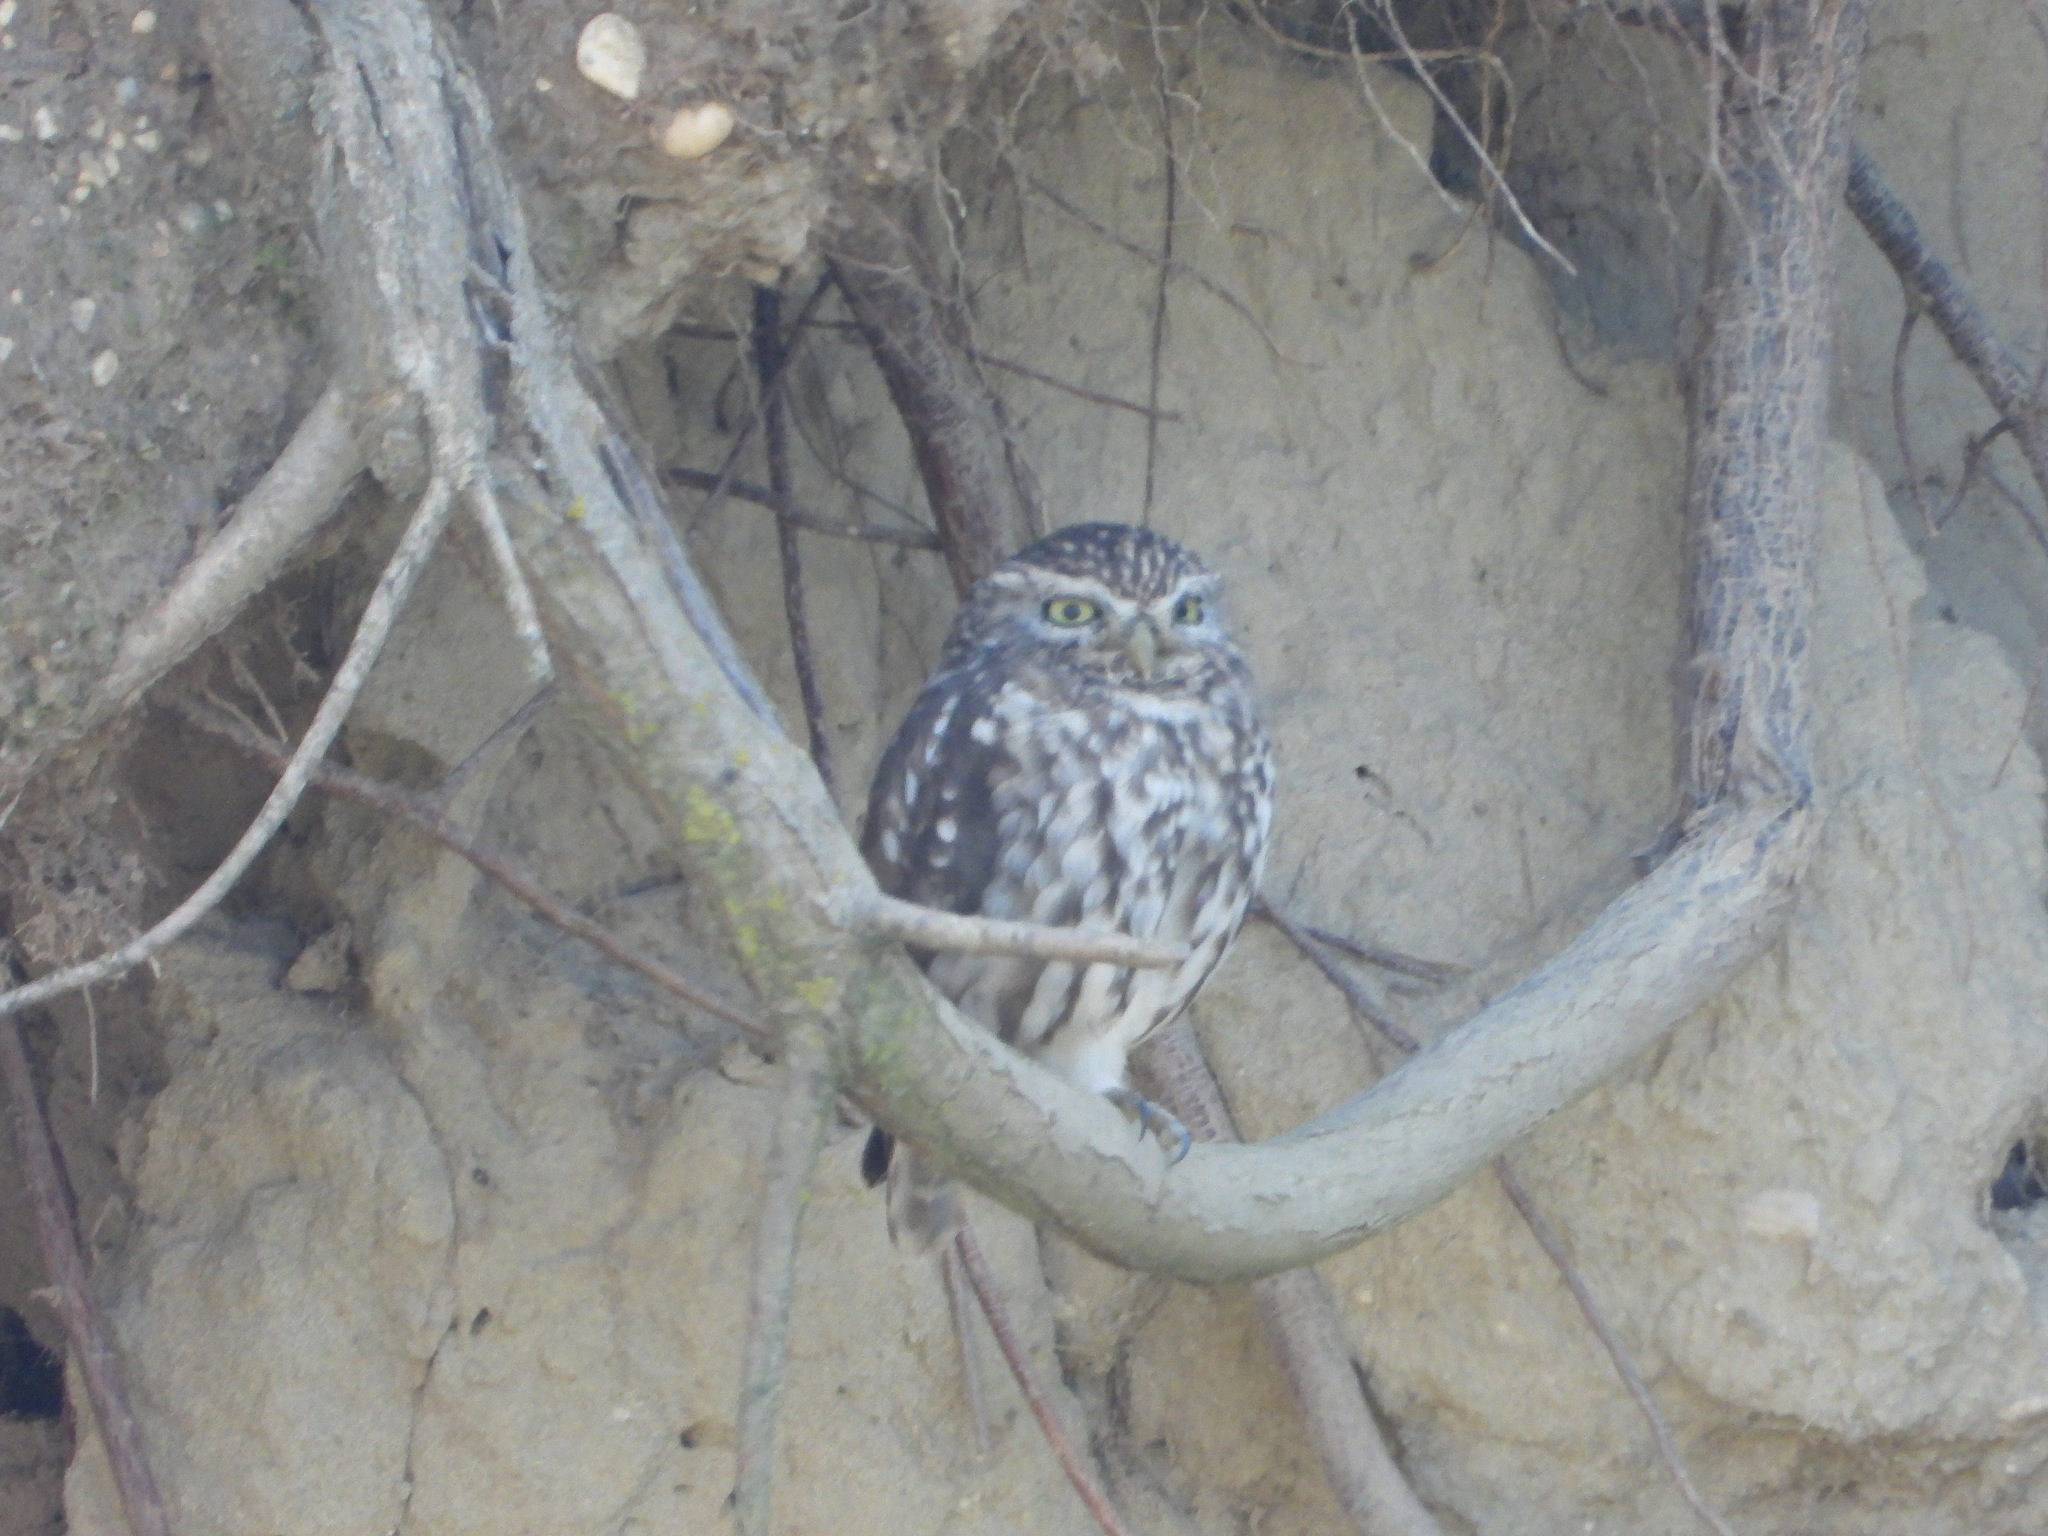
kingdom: Animalia
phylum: Chordata
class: Aves
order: Strigiformes
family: Strigidae
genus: Athene
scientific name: Athene noctua
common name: Little owl
